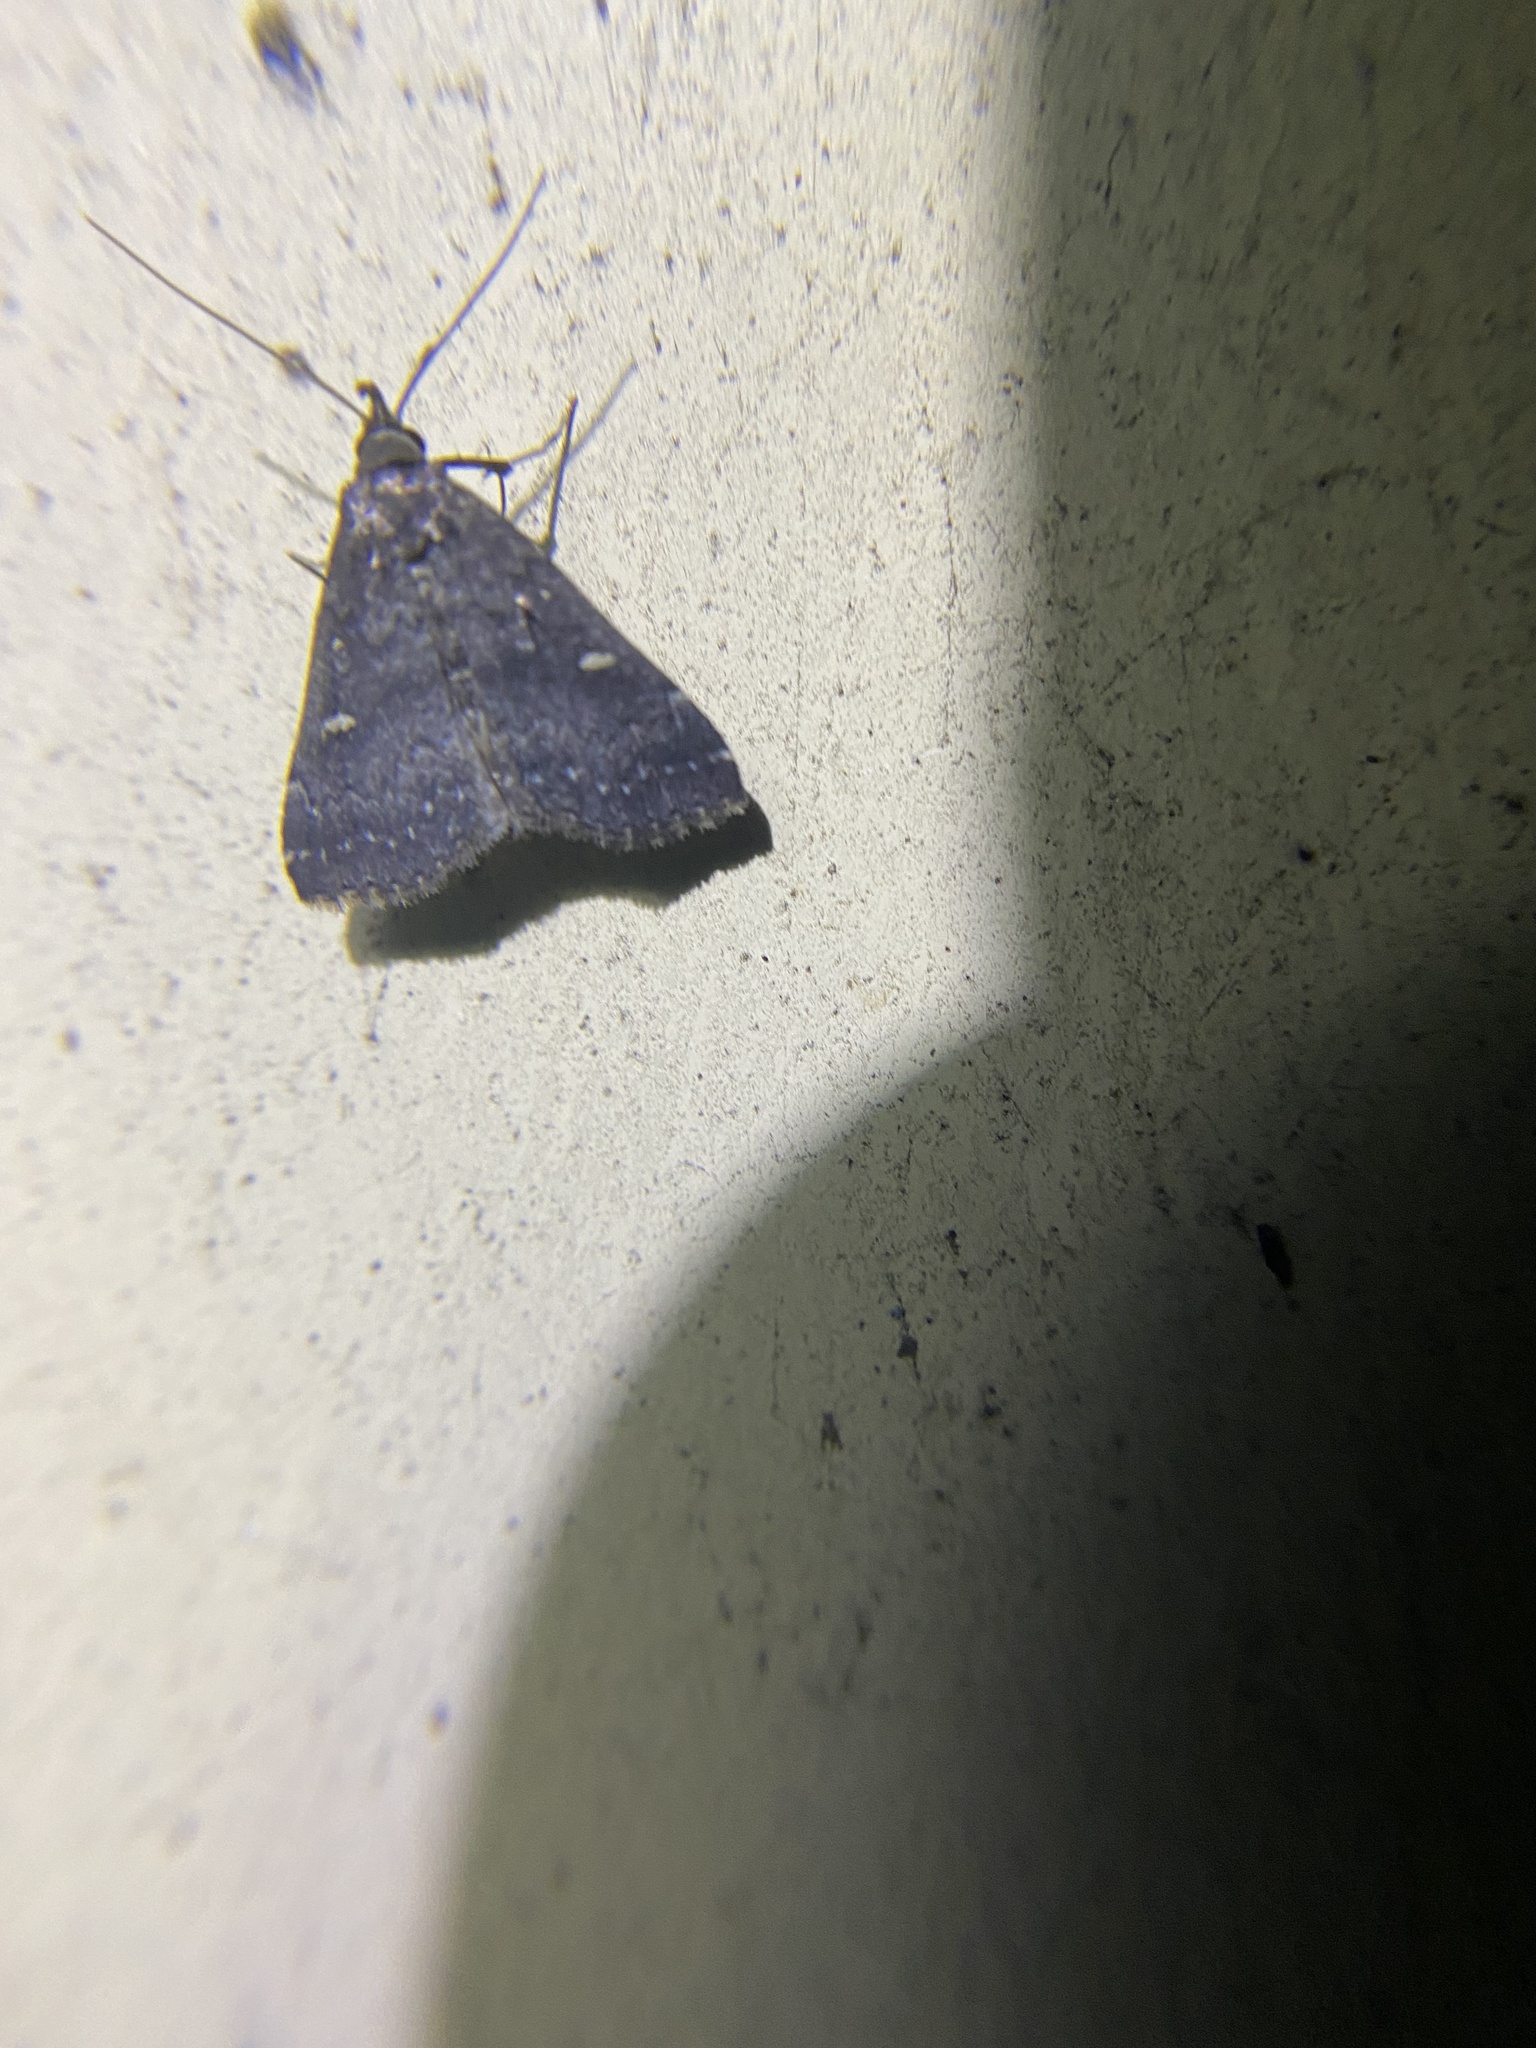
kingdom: Animalia
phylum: Arthropoda
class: Insecta
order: Lepidoptera
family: Erebidae
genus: Tetanolita
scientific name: Tetanolita mynesalis
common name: Smoky tetanolita moth
